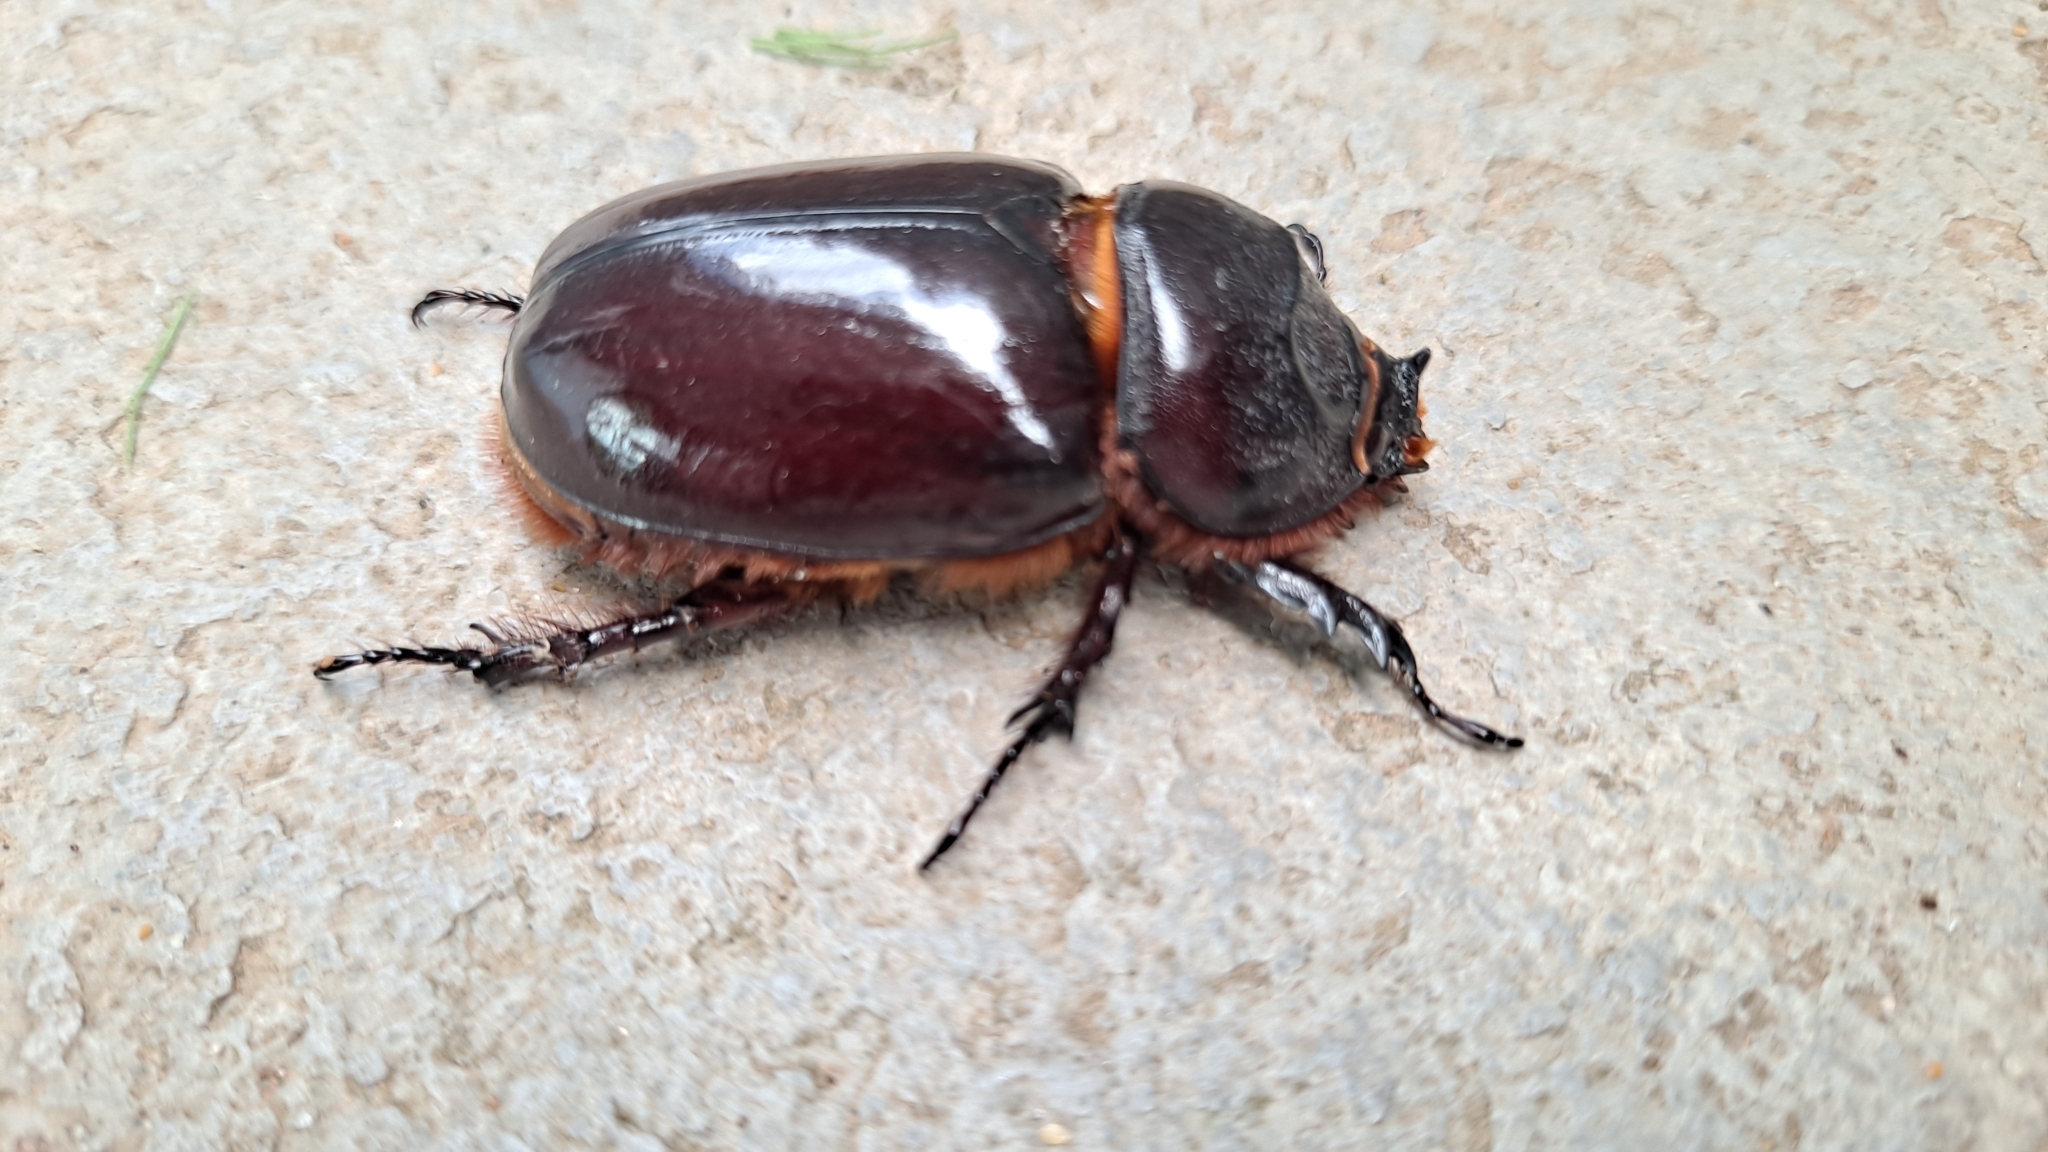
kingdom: Animalia
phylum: Arthropoda
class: Insecta
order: Coleoptera
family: Scarabaeidae
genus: Oryctes
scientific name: Oryctes nasicornis
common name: European rhinoceros beetle
